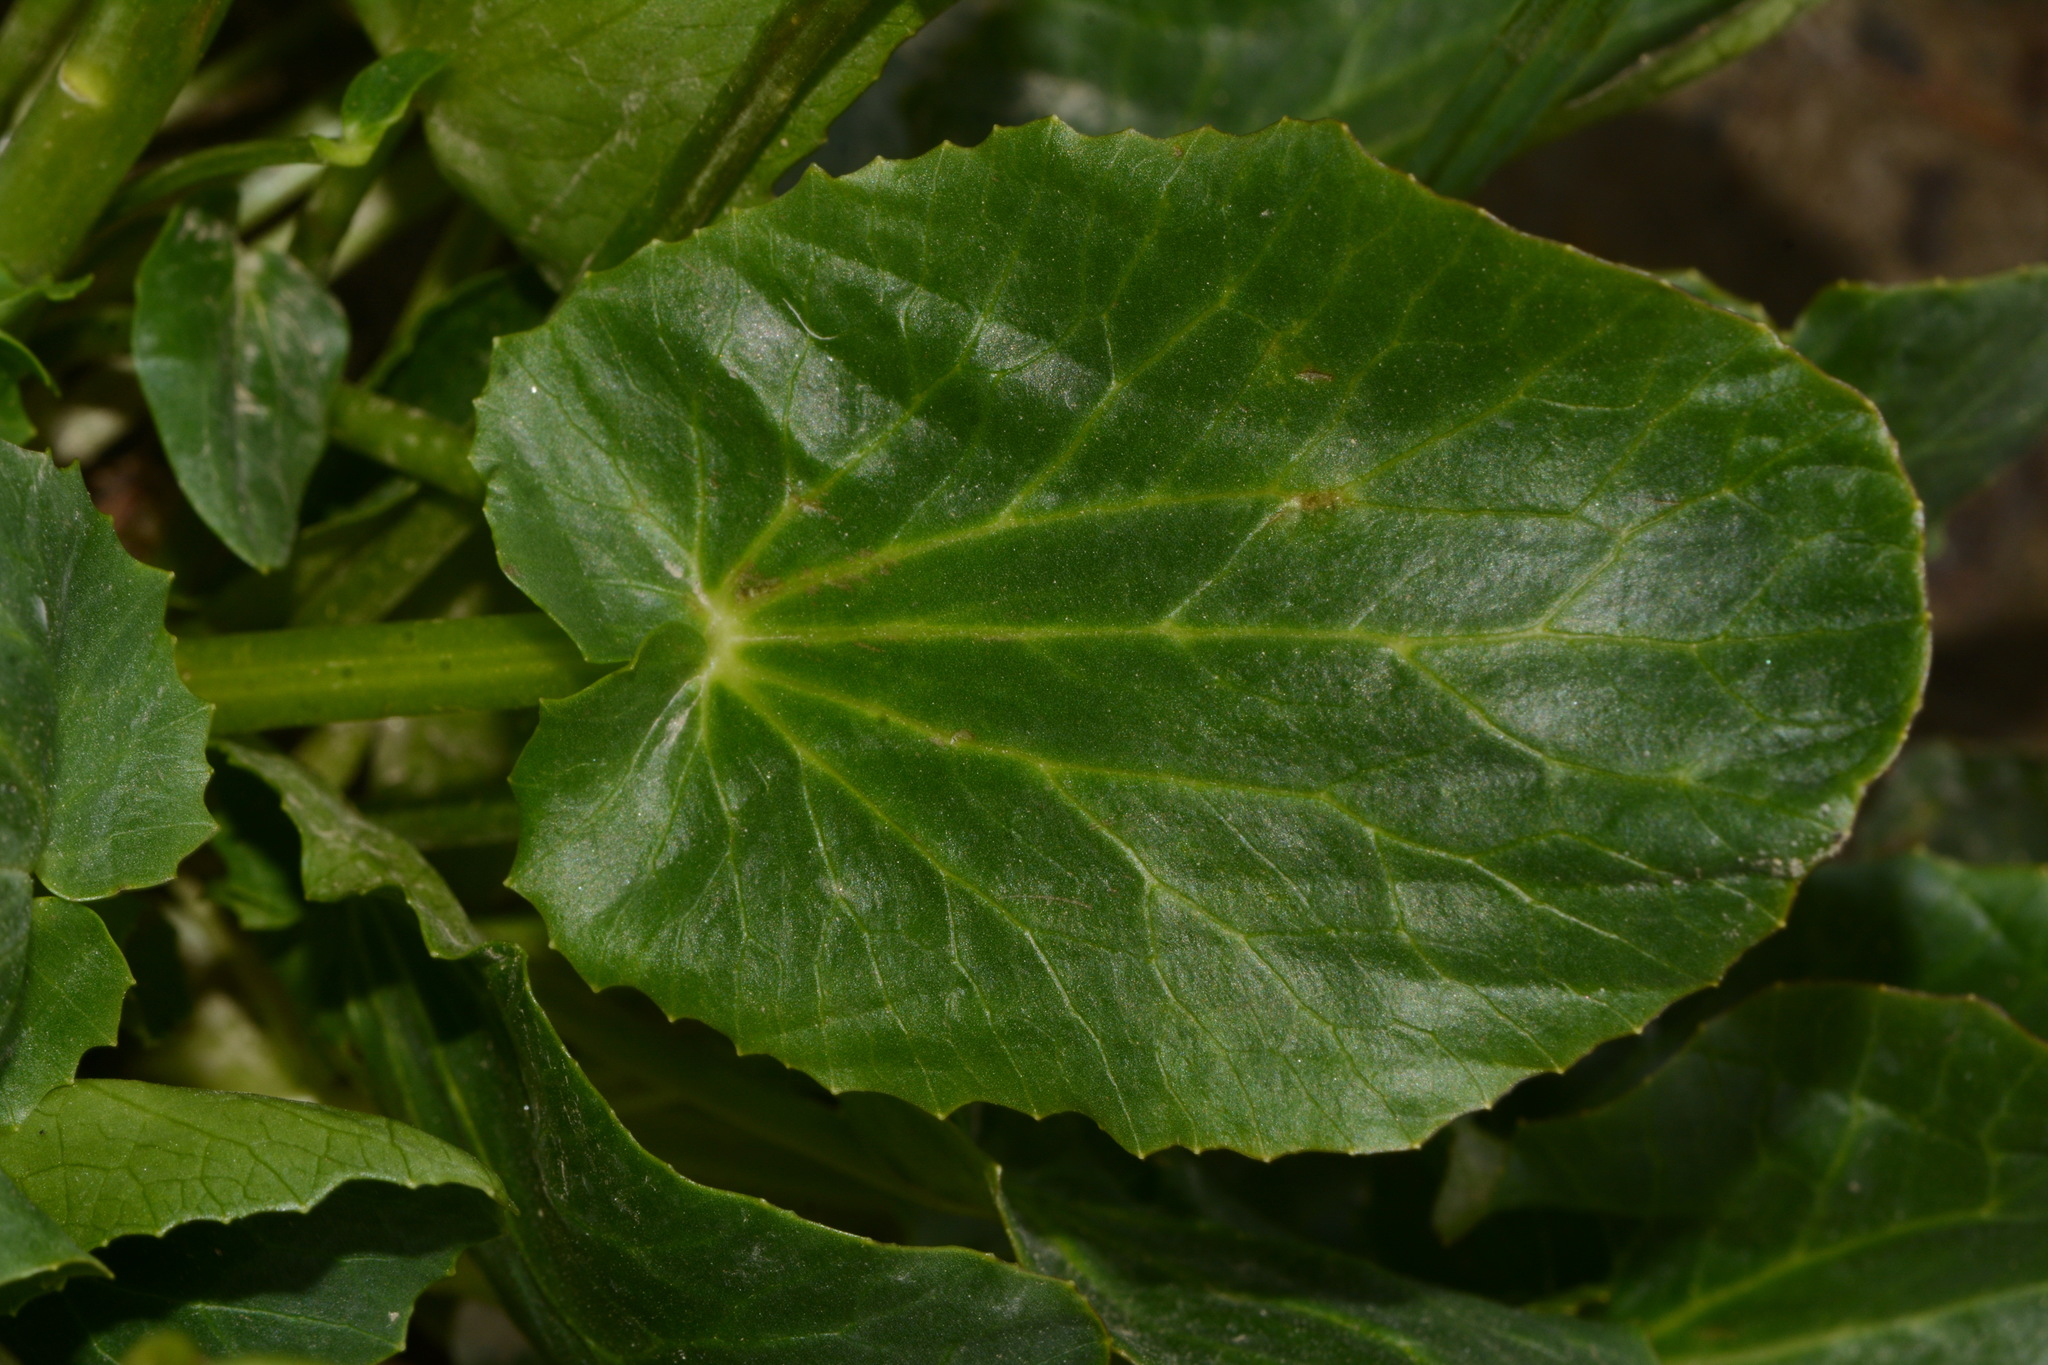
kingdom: Plantae
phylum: Tracheophyta
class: Magnoliopsida
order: Ranunculales
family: Ranunculaceae
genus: Caltha
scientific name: Caltha leptosepala
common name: Elkslip
